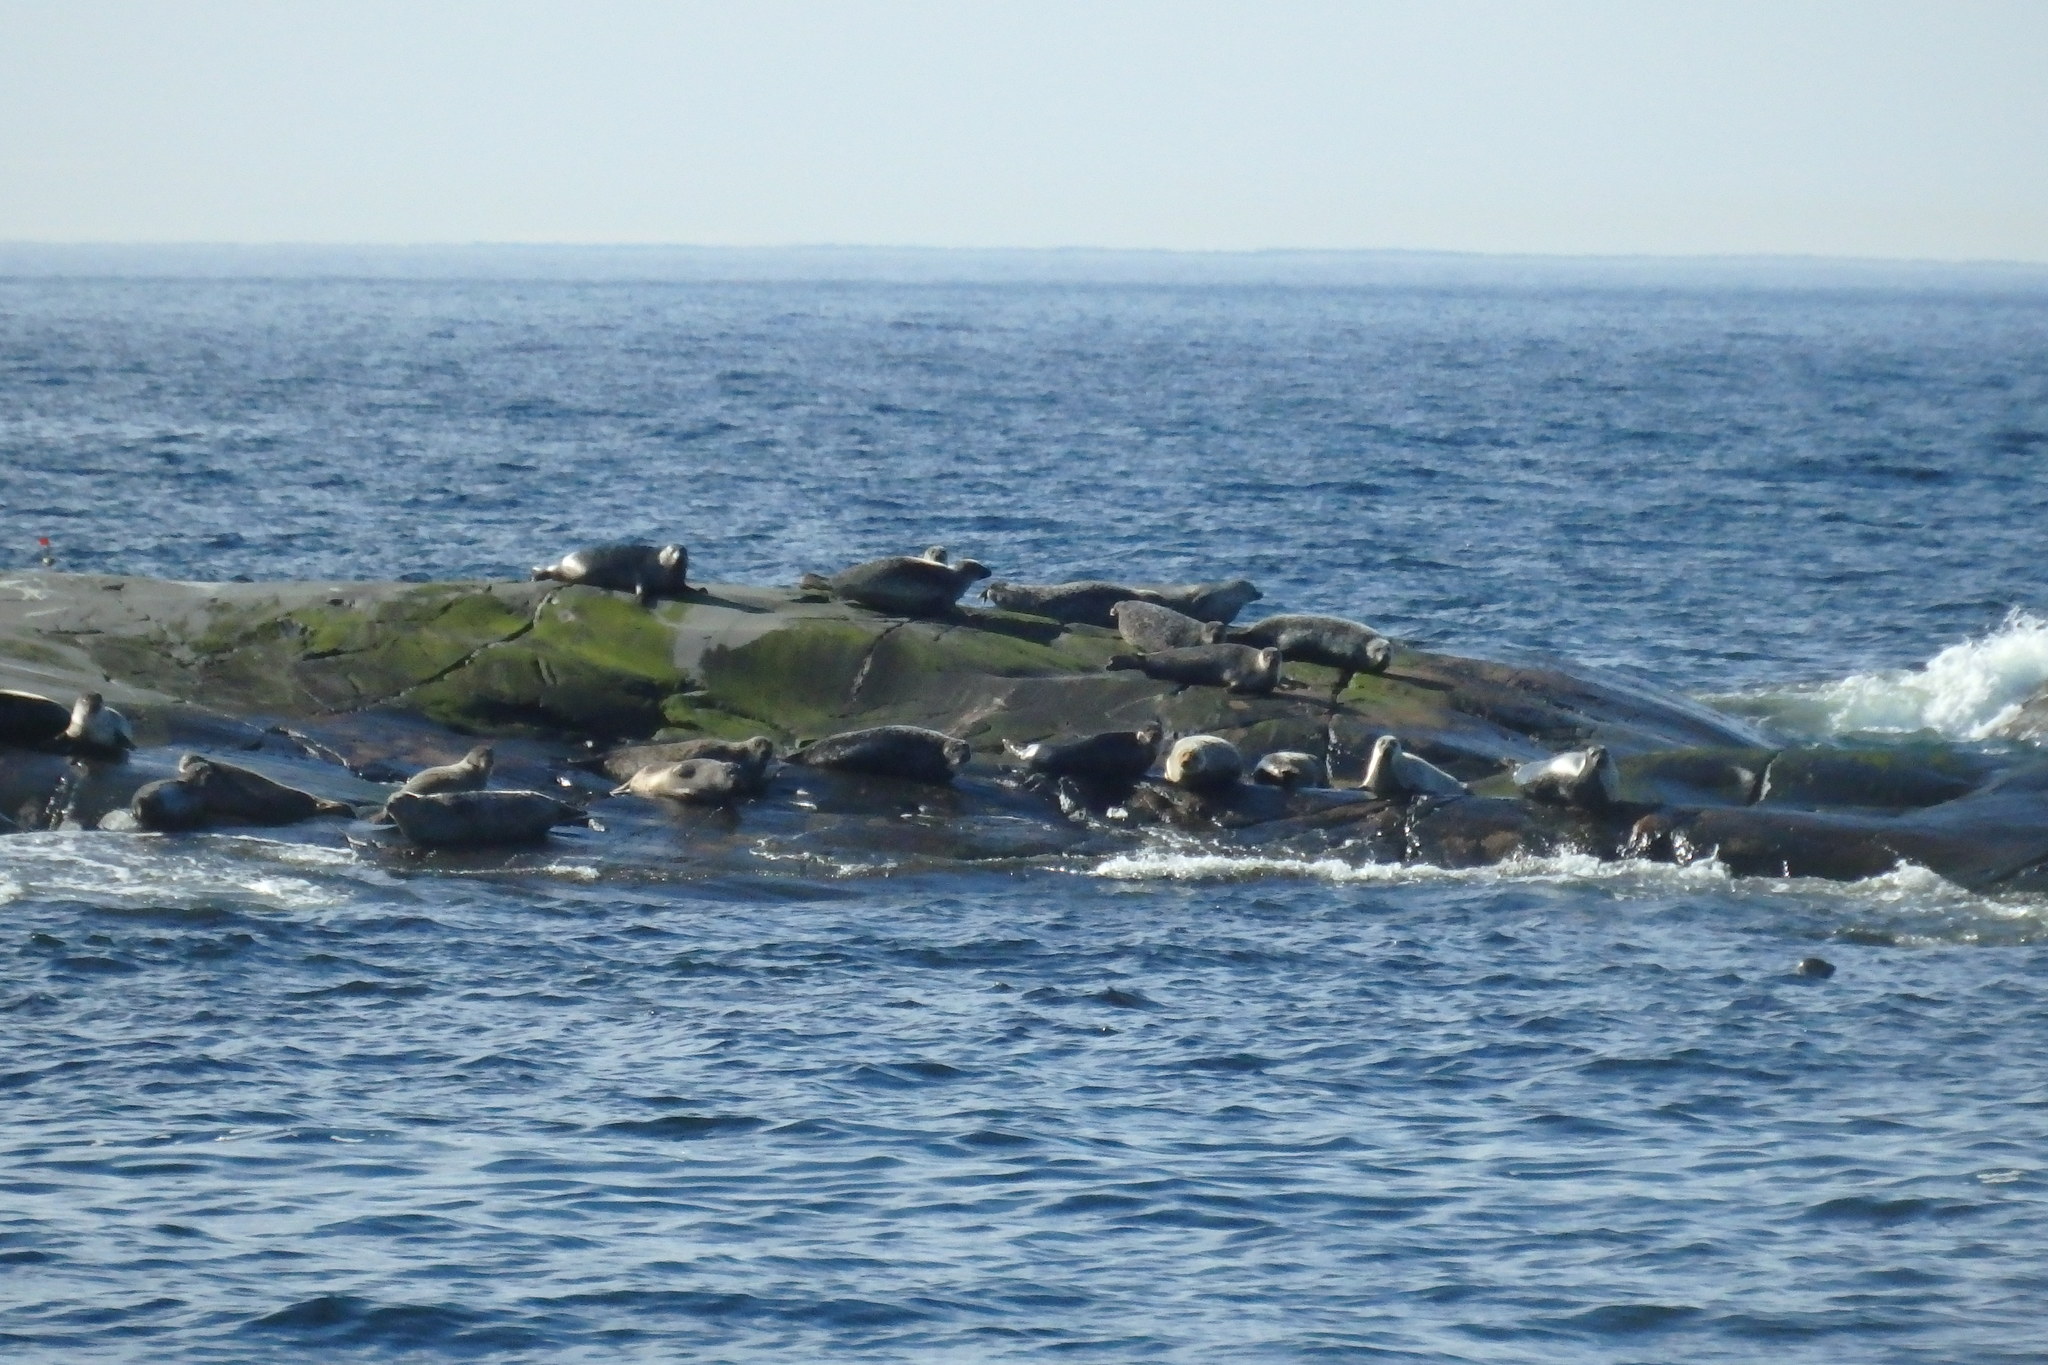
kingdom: Animalia
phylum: Chordata
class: Mammalia
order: Carnivora
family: Phocidae
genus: Phoca
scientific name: Phoca vitulina
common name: Harbor seal
